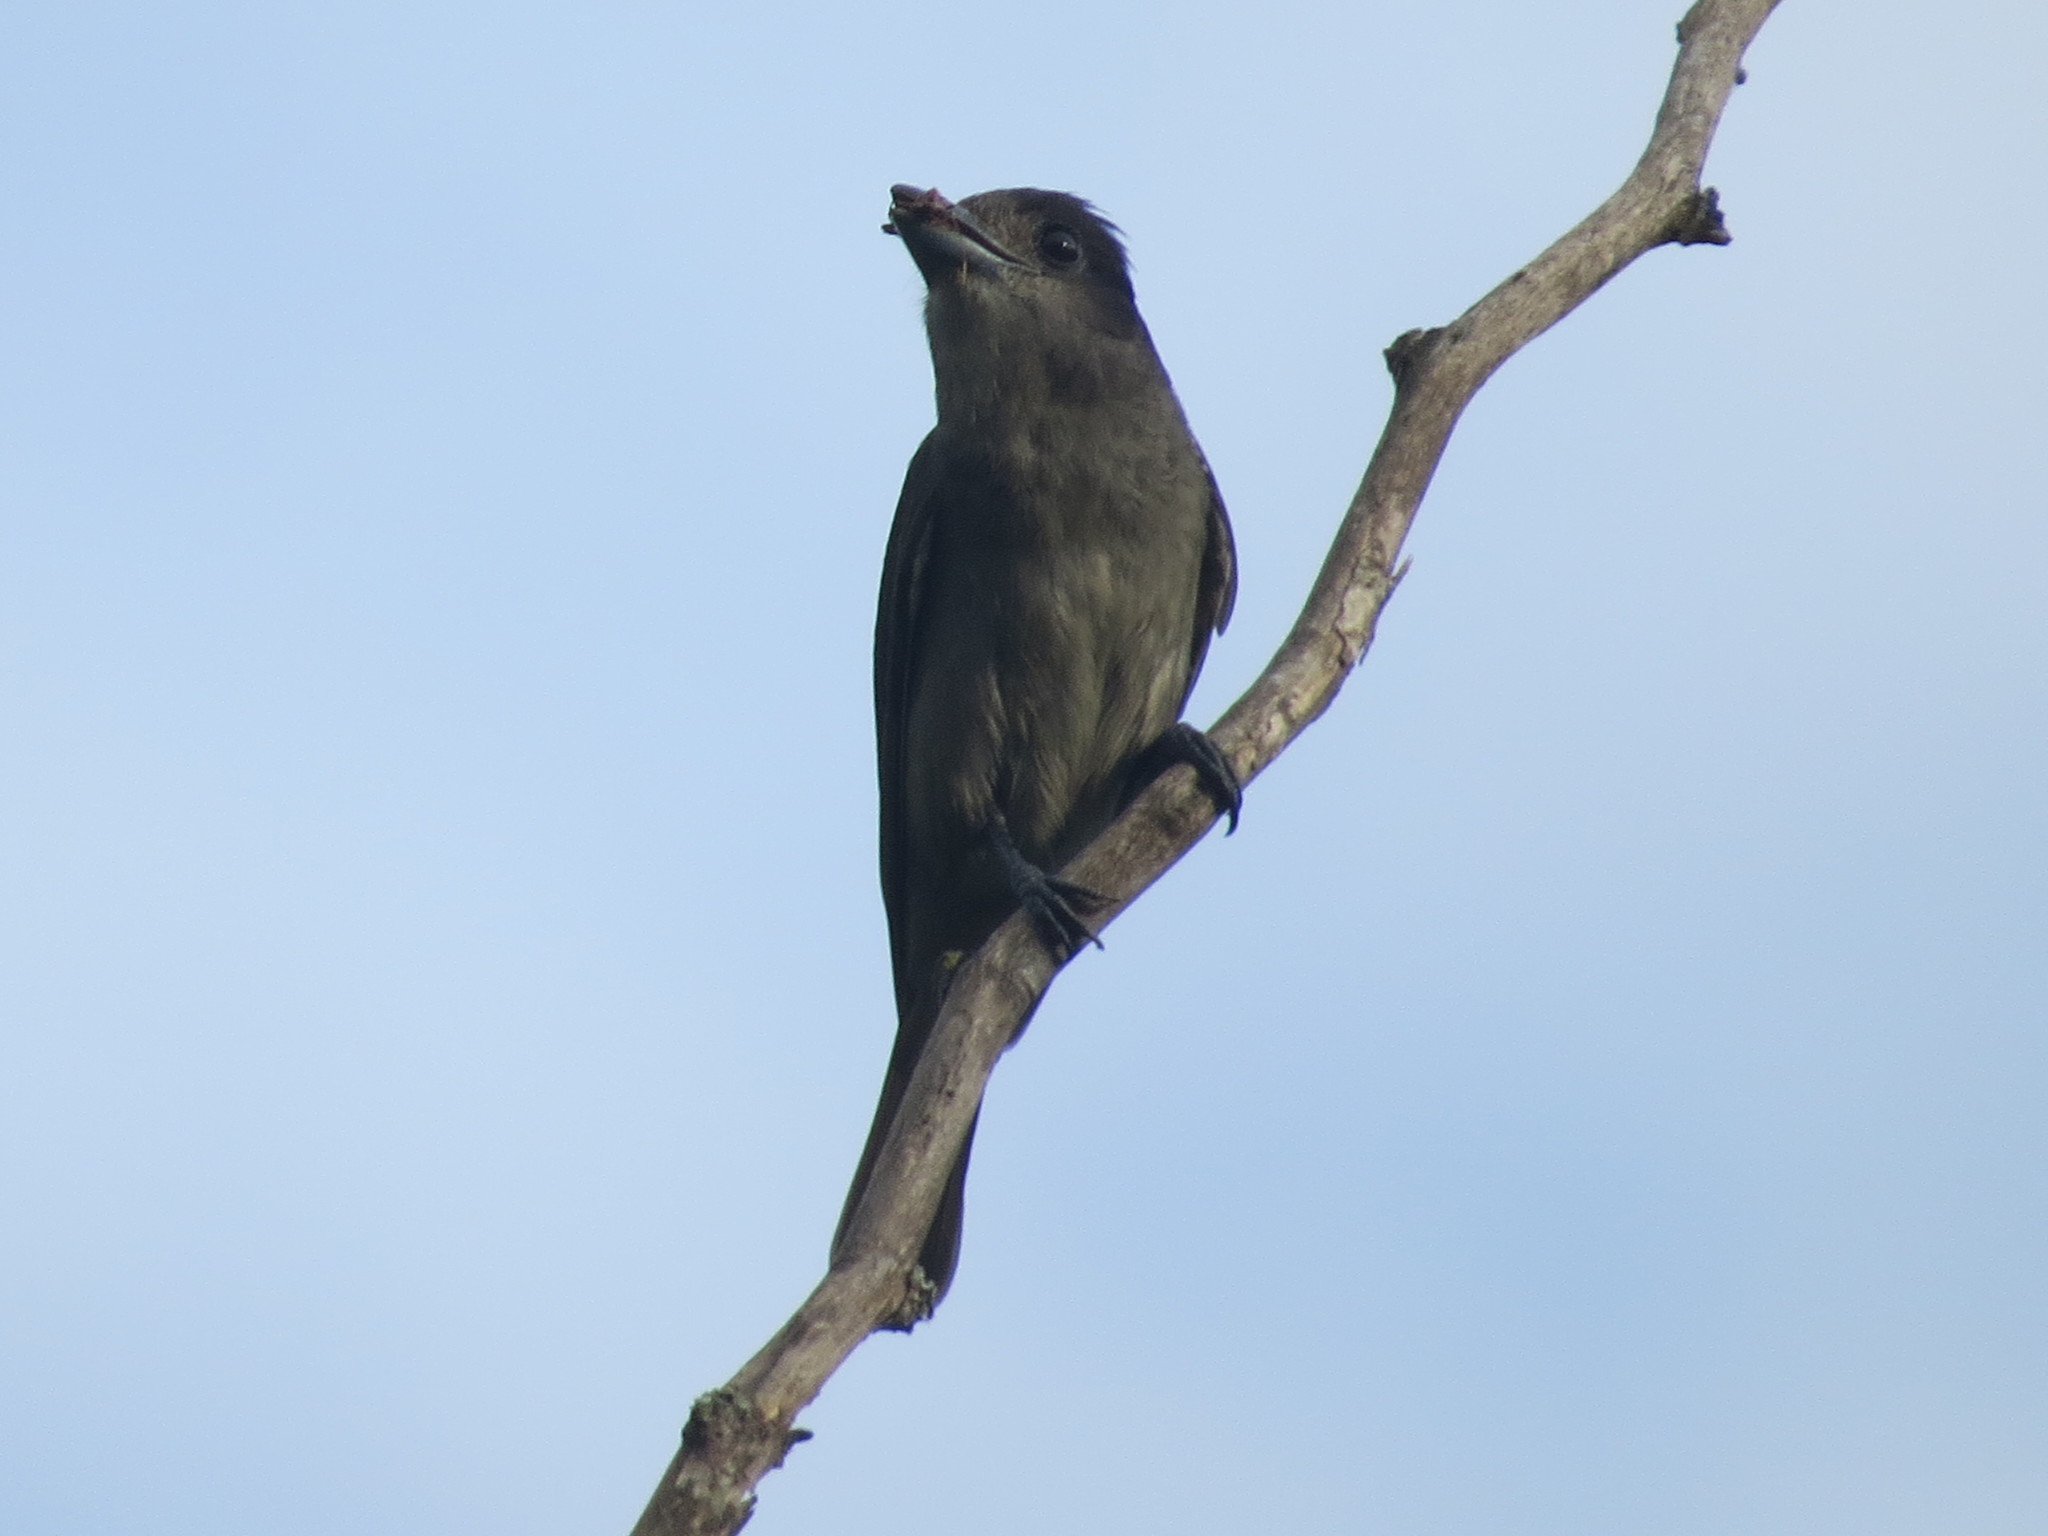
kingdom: Animalia
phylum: Chordata
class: Aves
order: Passeriformes
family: Cotingidae
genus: Pachyramphus
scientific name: Pachyramphus validus
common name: Crested becard
